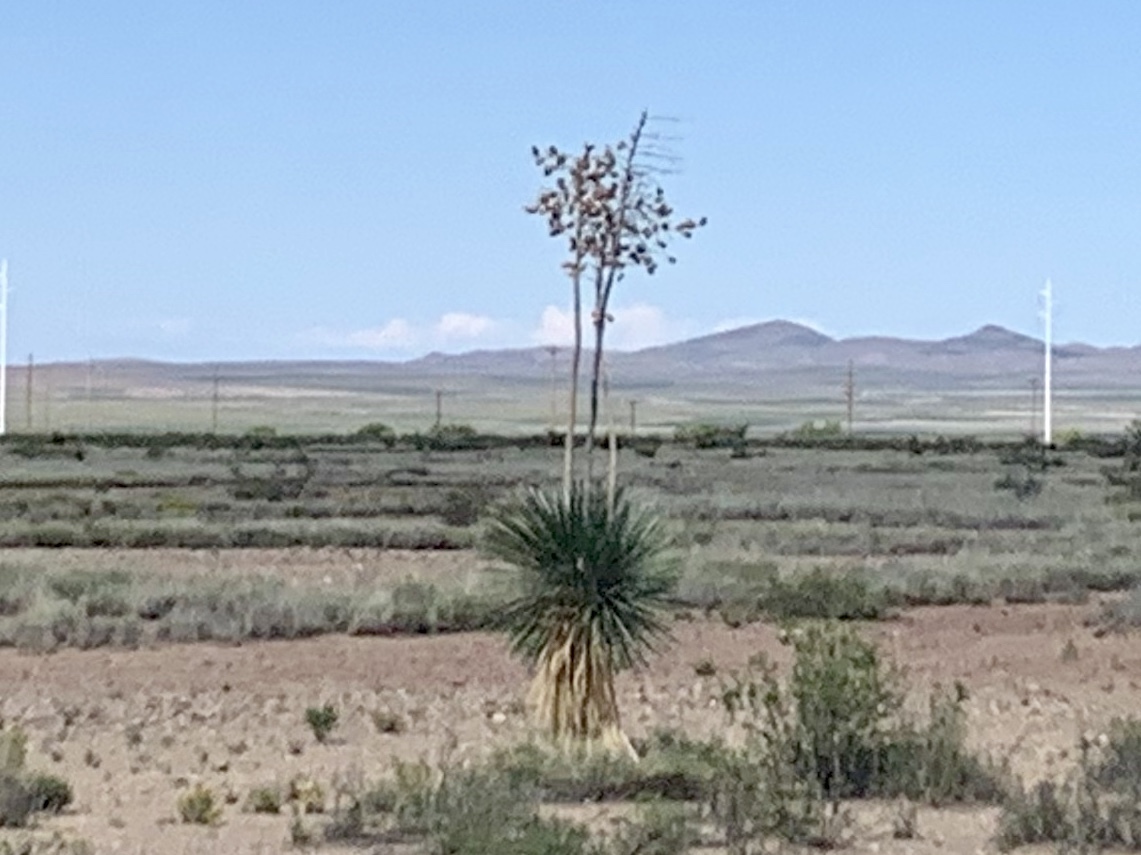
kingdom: Plantae
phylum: Tracheophyta
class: Liliopsida
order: Asparagales
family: Asparagaceae
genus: Yucca
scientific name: Yucca elata
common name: Palmella
